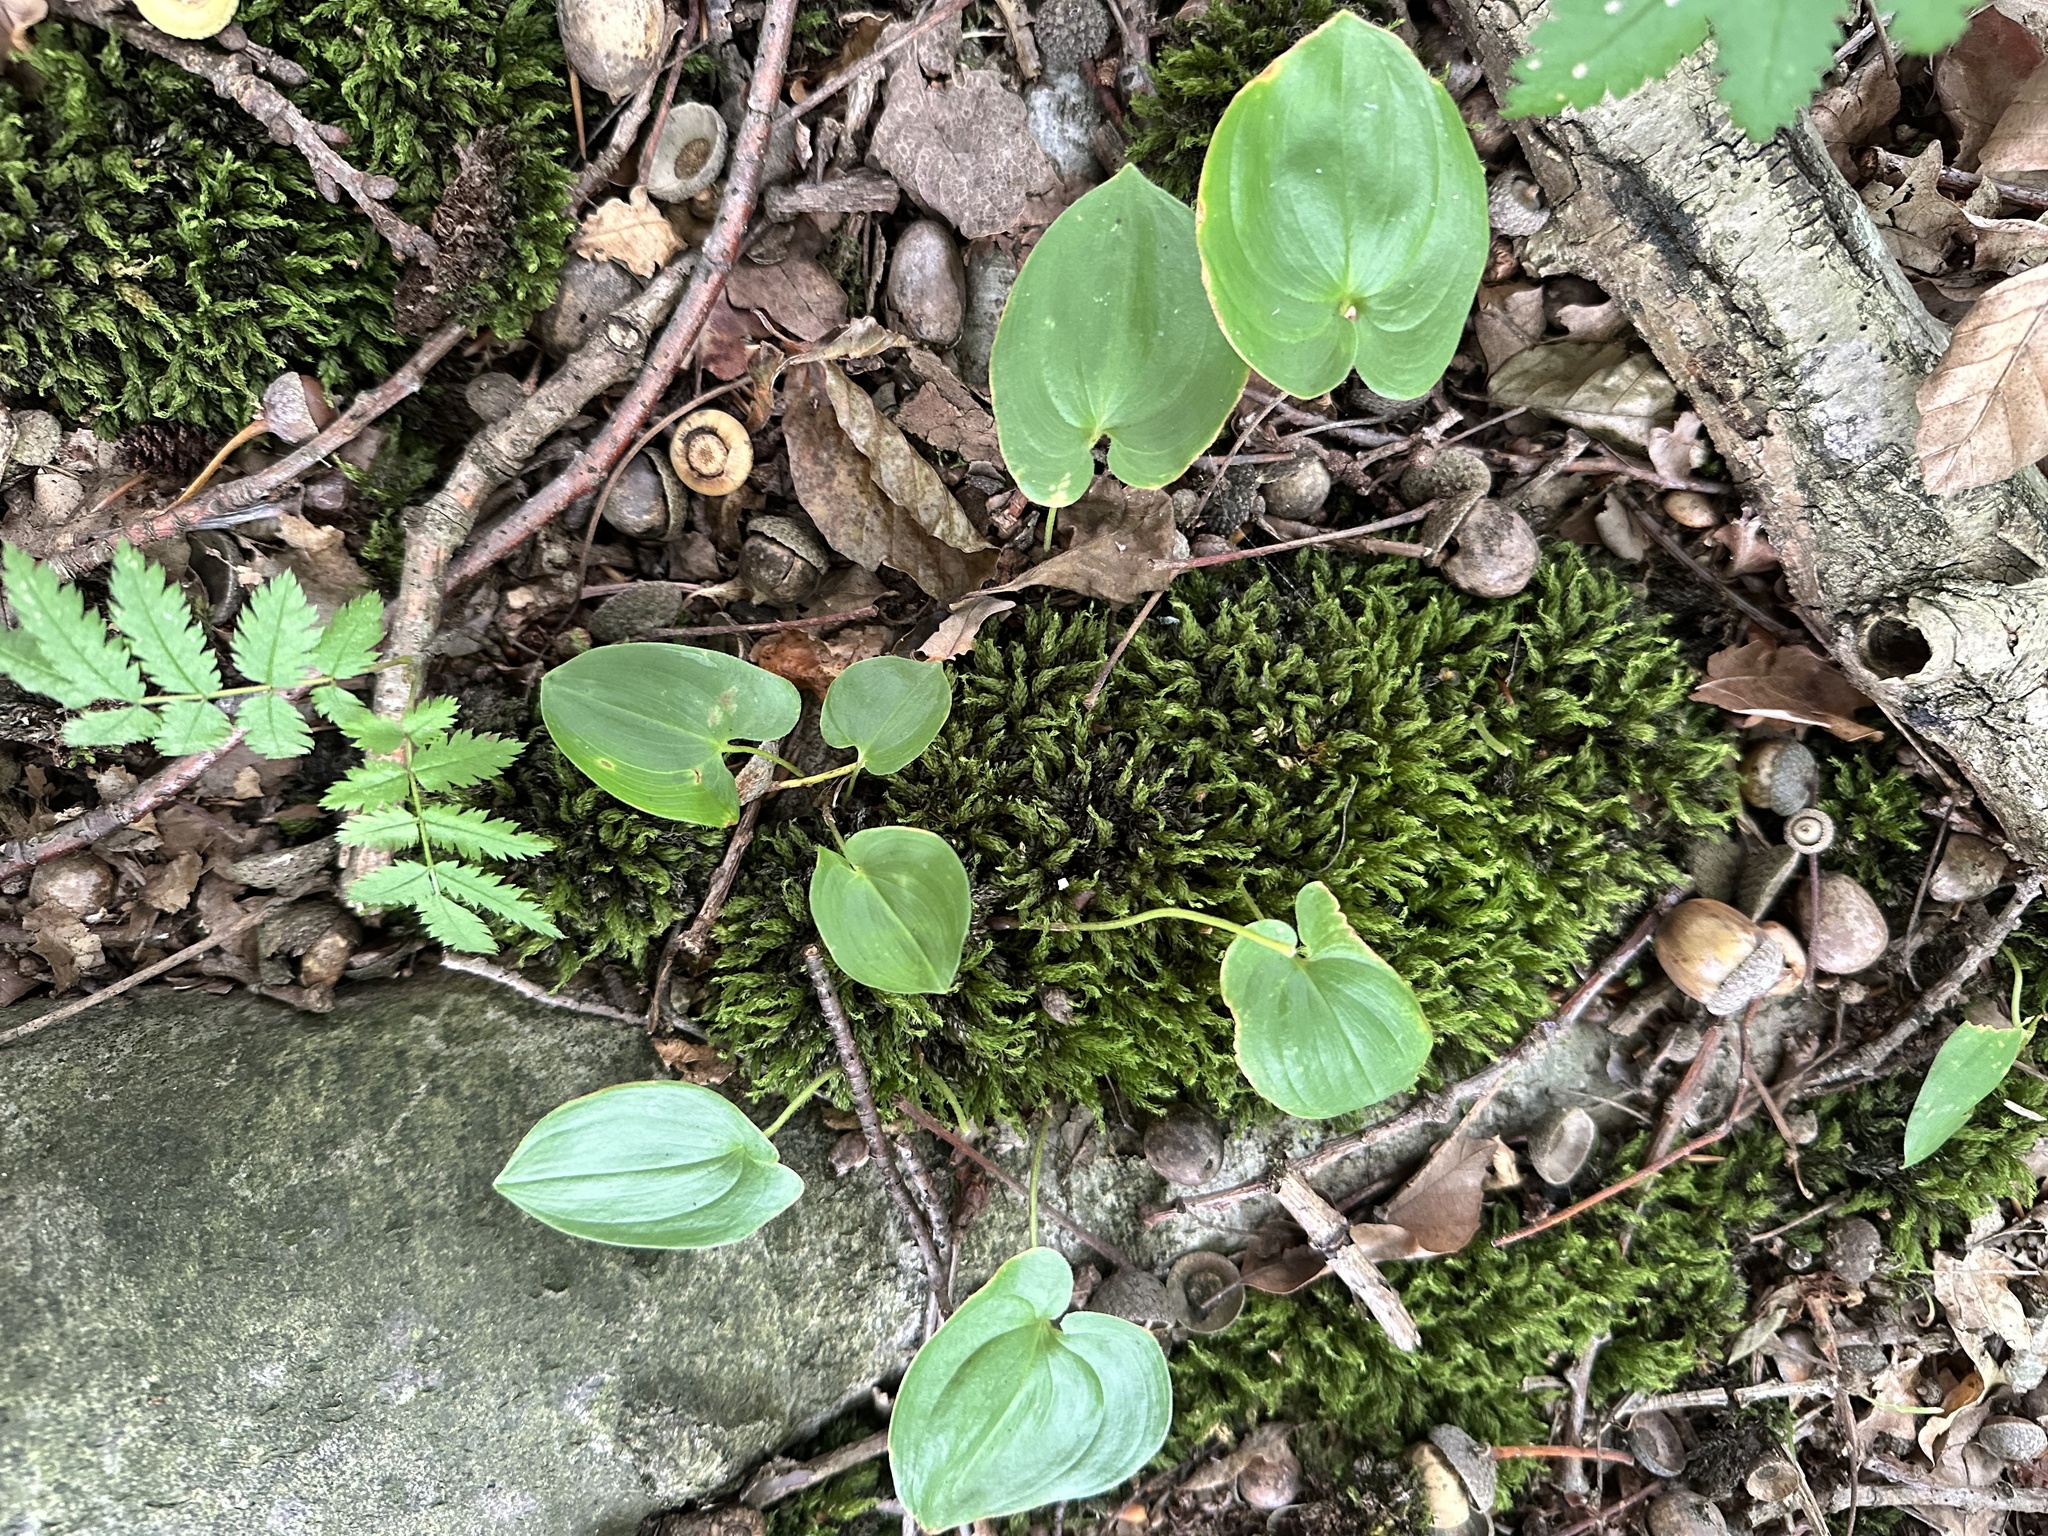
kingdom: Plantae
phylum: Tracheophyta
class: Liliopsida
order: Asparagales
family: Asparagaceae
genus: Maianthemum
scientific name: Maianthemum bifolium
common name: May lily
